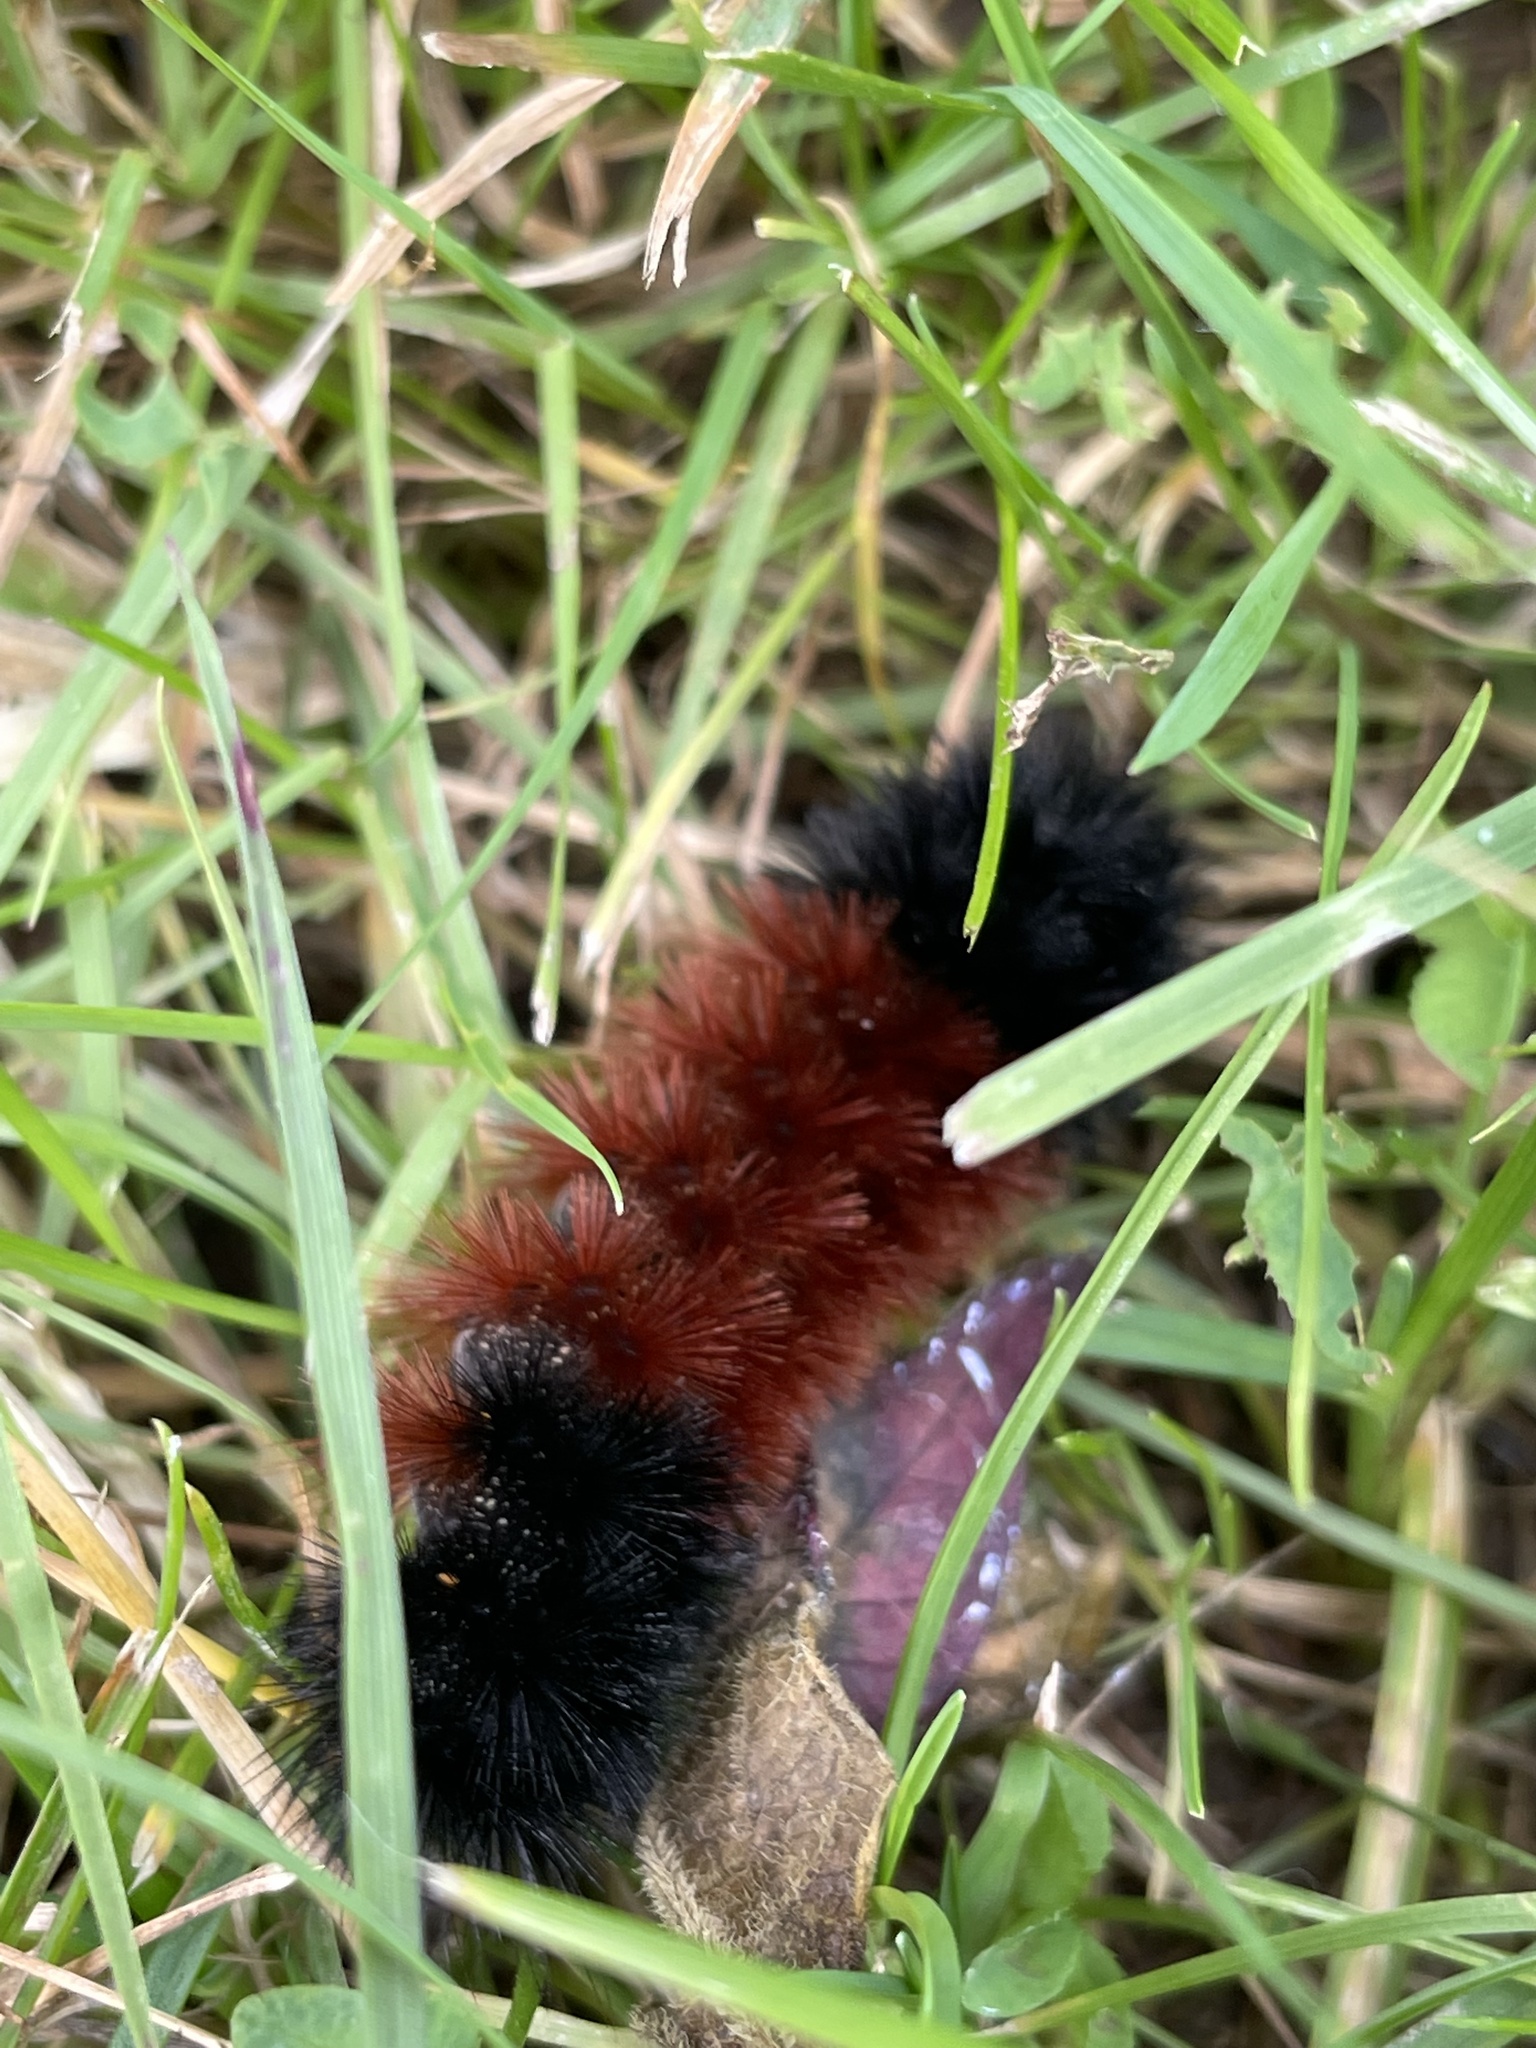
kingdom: Animalia
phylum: Arthropoda
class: Insecta
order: Lepidoptera
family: Erebidae
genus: Pyrrharctia
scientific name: Pyrrharctia isabella
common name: Isabella tiger moth
